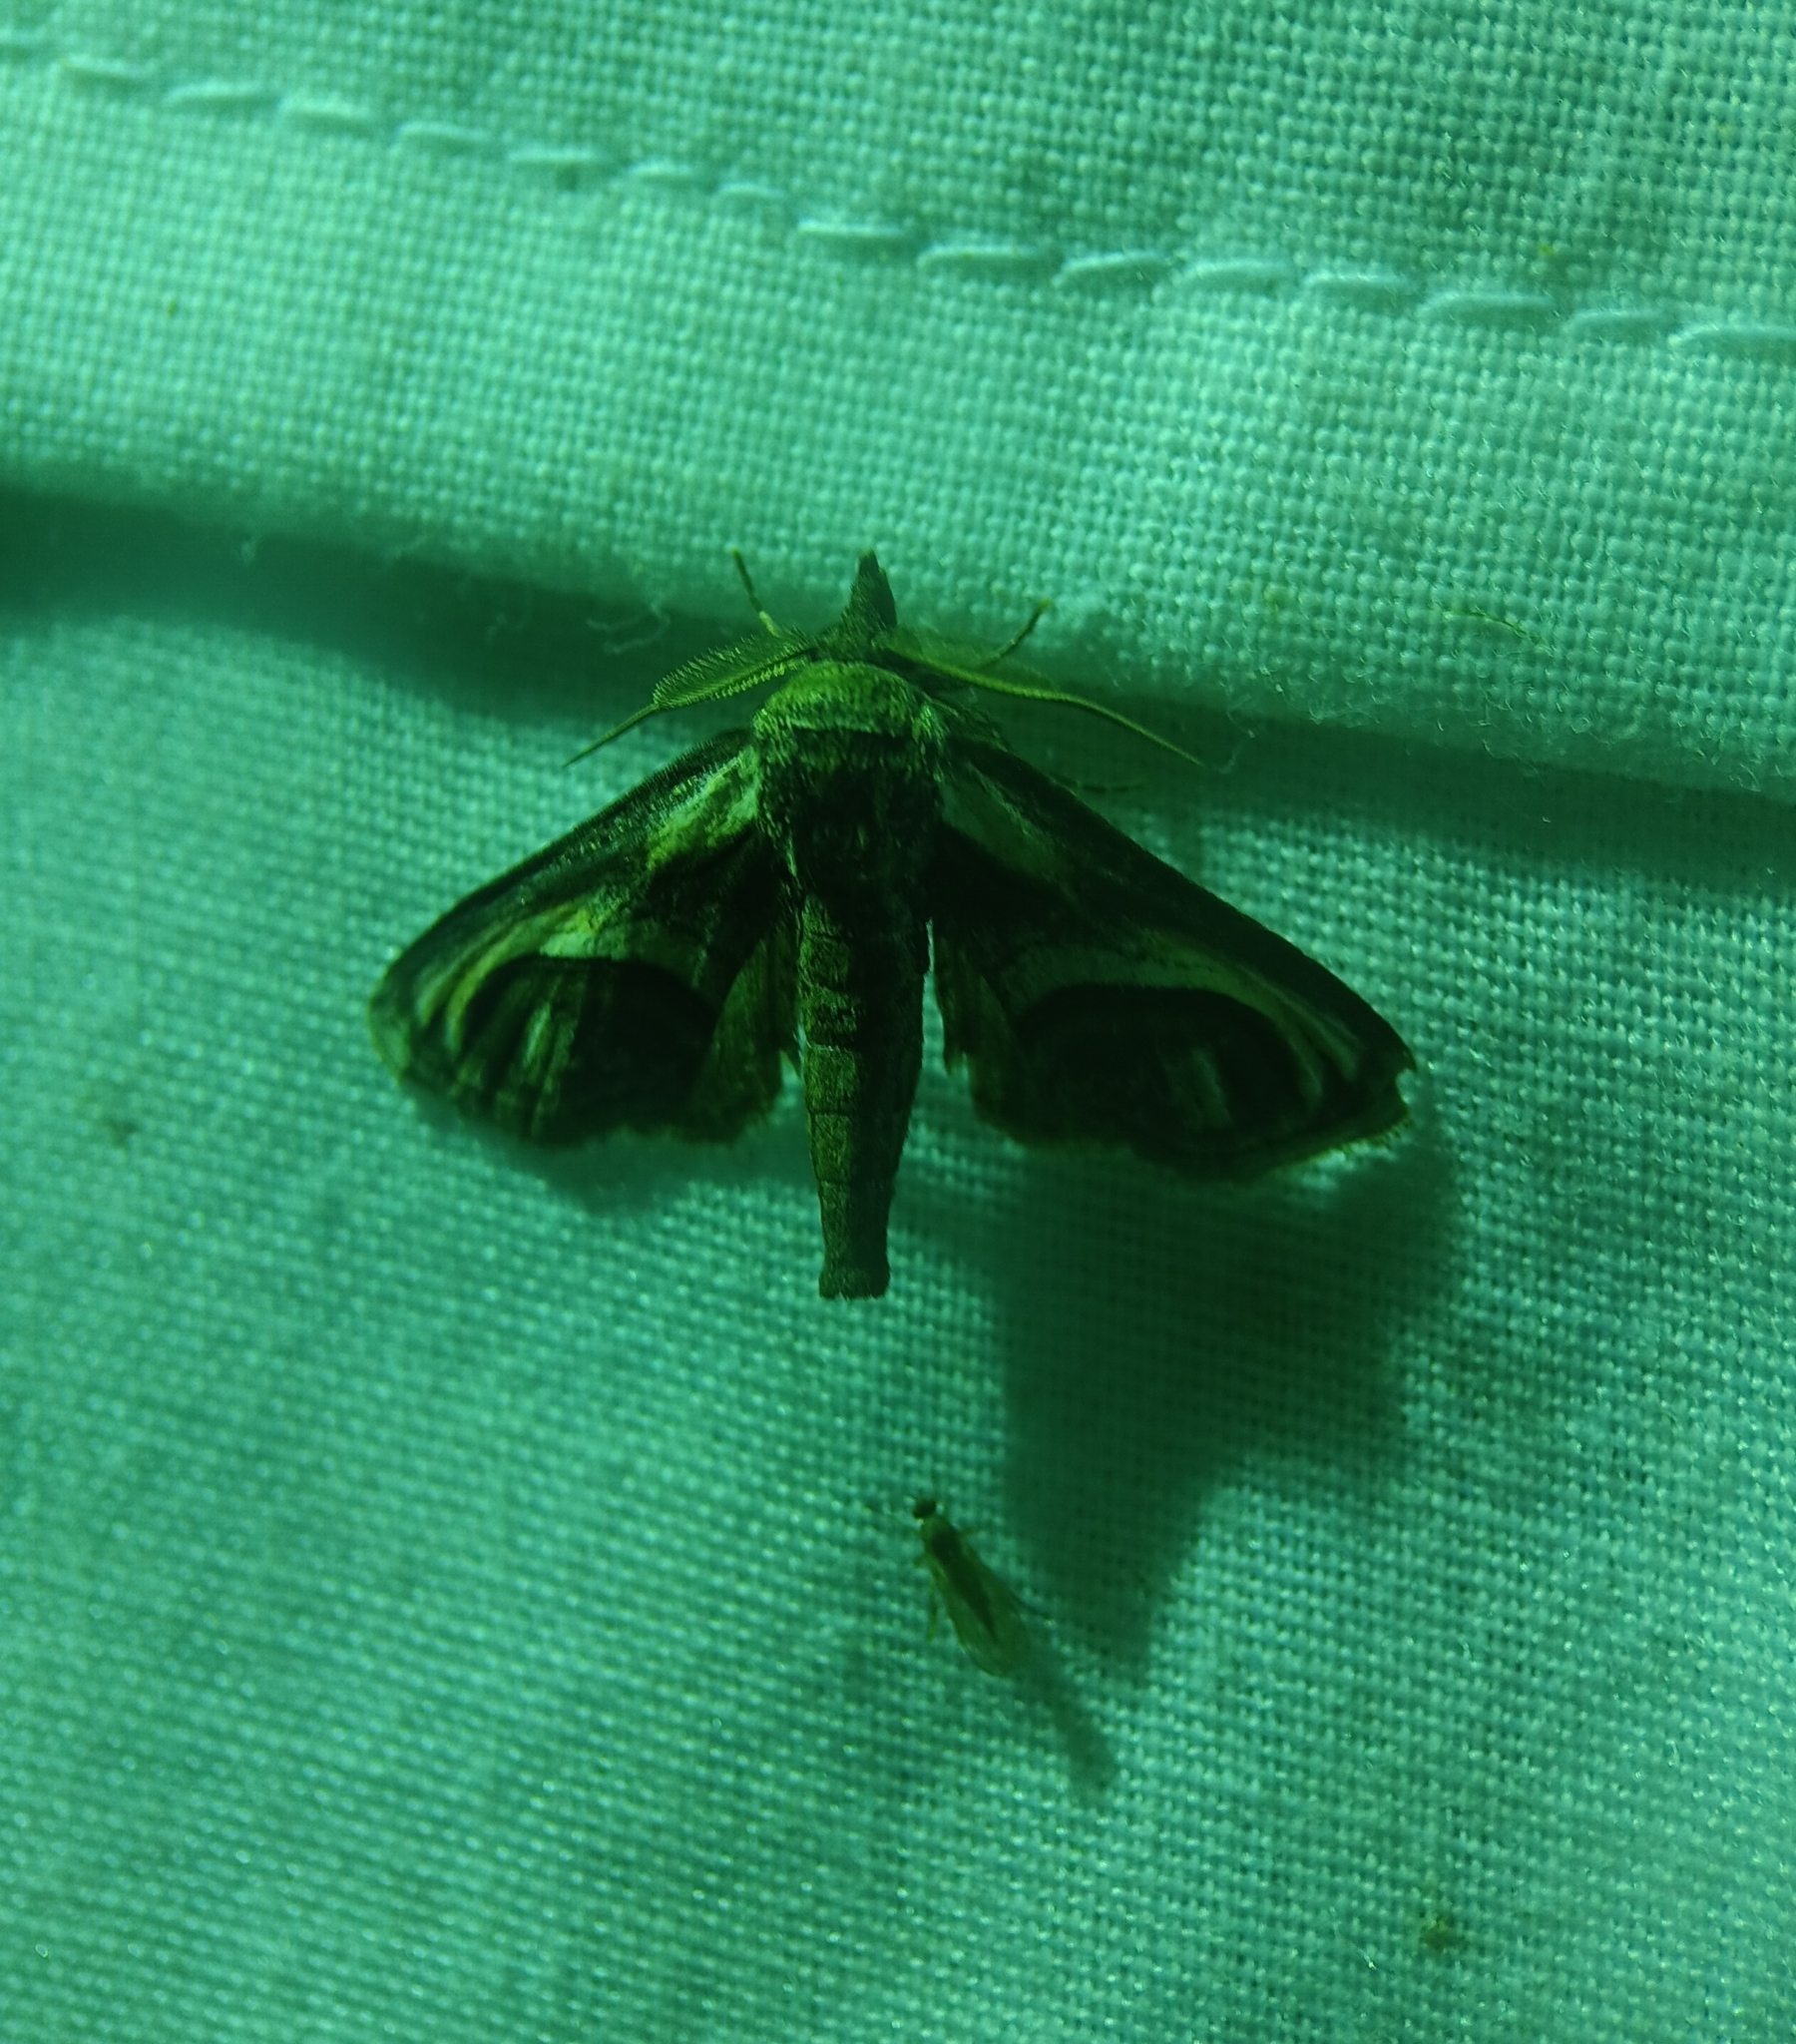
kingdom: Animalia
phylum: Arthropoda
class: Insecta
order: Lepidoptera
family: Euteliidae
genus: Paectes
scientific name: Paectes oculatrix
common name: Eyed paectes moth
